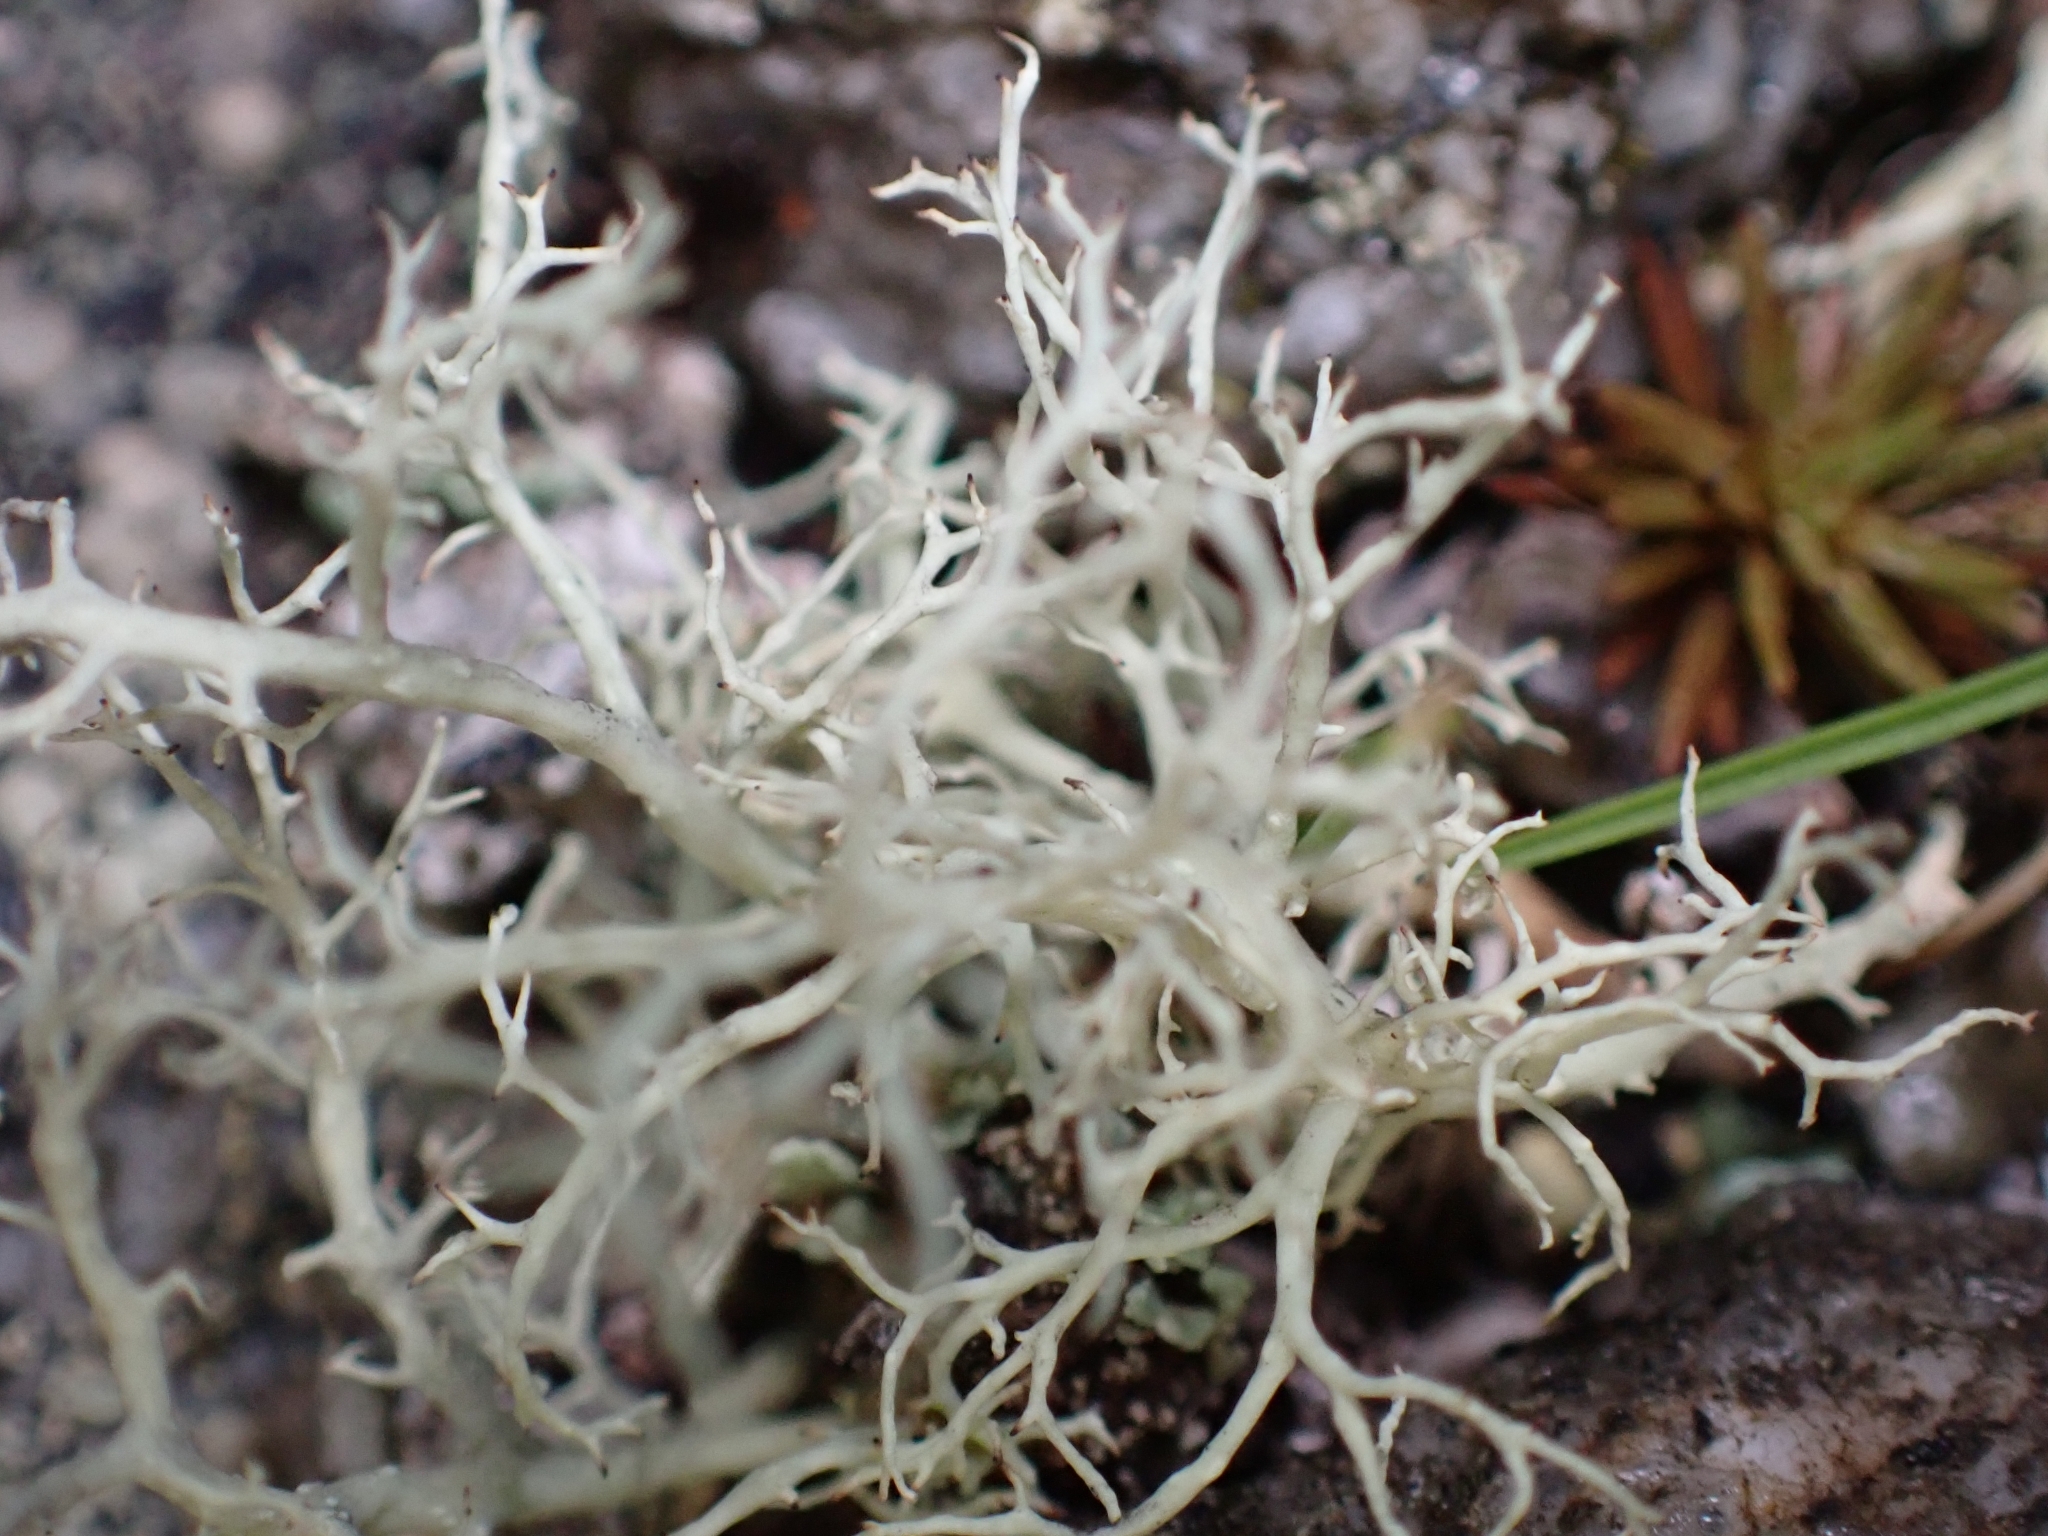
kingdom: Fungi
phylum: Ascomycota
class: Lecanoromycetes
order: Lecanorales
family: Parmeliaceae
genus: Alectoria
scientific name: Alectoria ochroleuca
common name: Alpine sulphur-tresses
